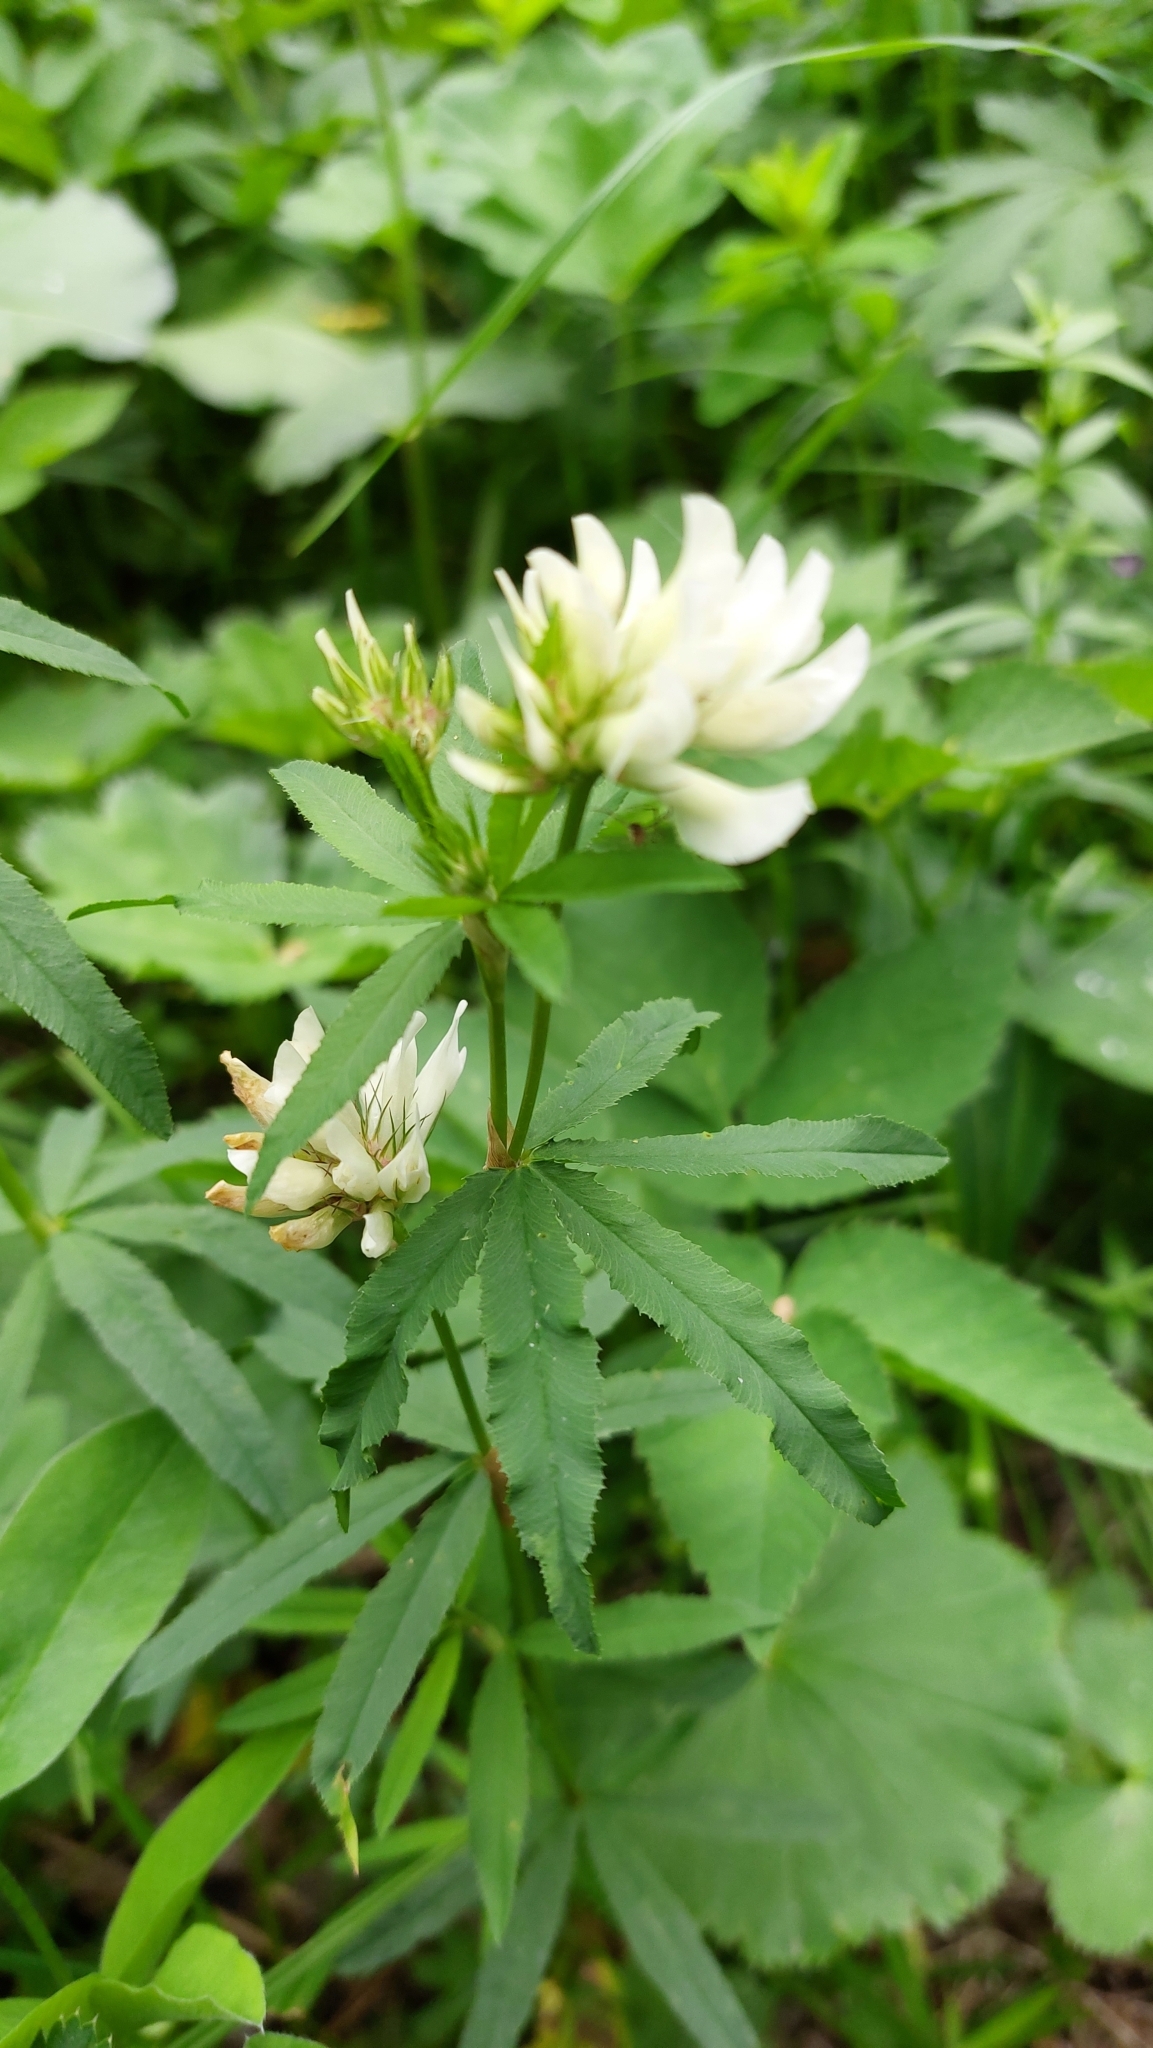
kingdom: Plantae
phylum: Tracheophyta
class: Magnoliopsida
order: Fabales
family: Fabaceae
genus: Trifolium
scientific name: Trifolium lupinaster
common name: Lupine clover
